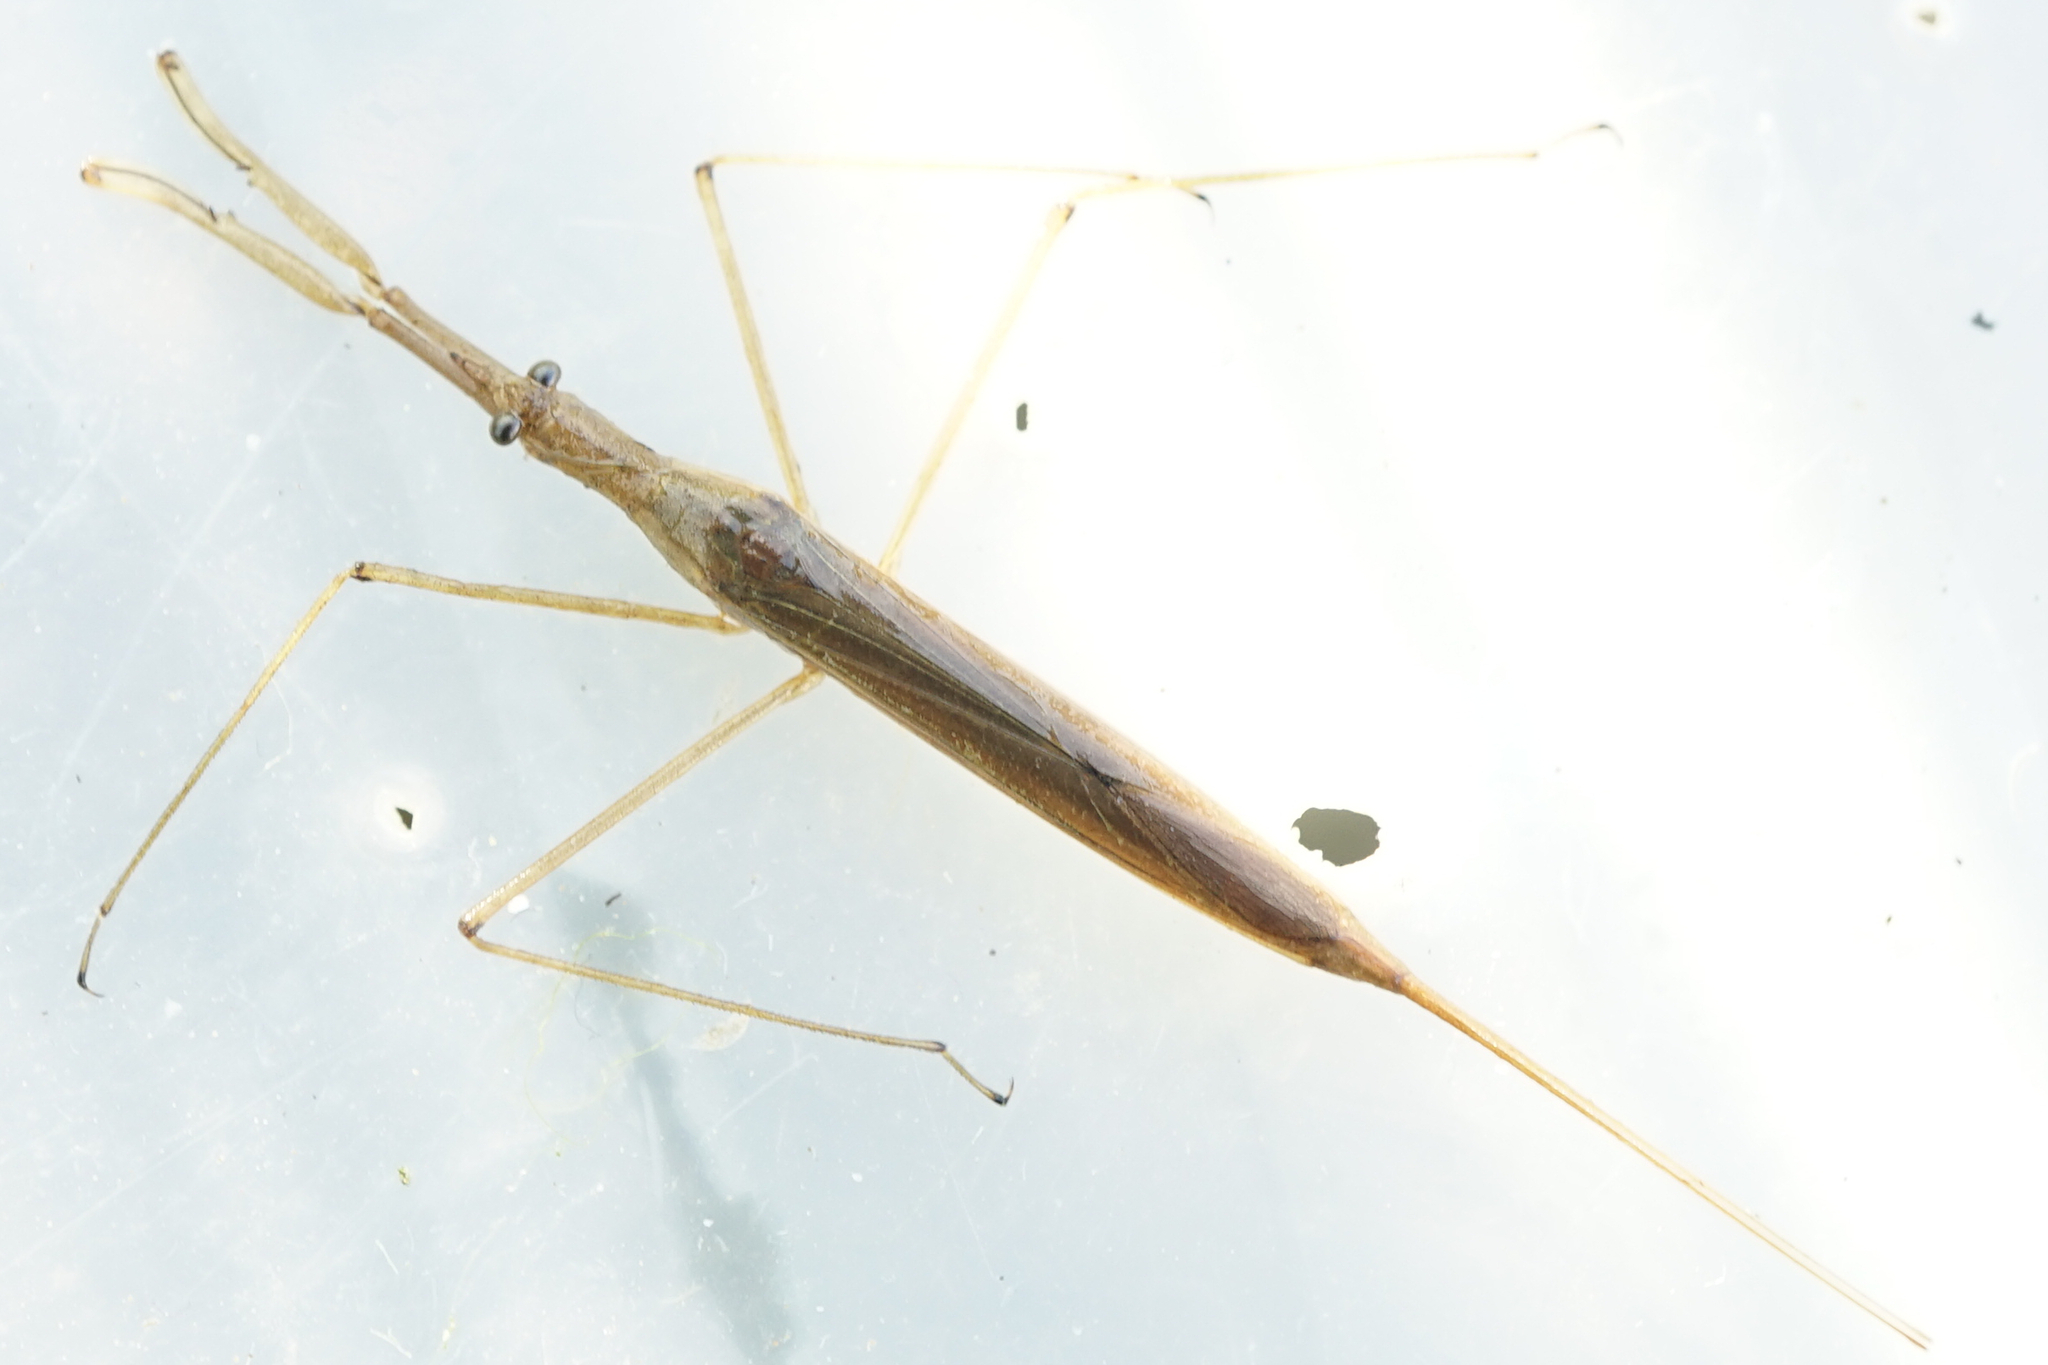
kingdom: Animalia
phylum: Arthropoda
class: Insecta
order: Hemiptera
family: Nepidae
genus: Ranatra
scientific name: Ranatra unicolor
